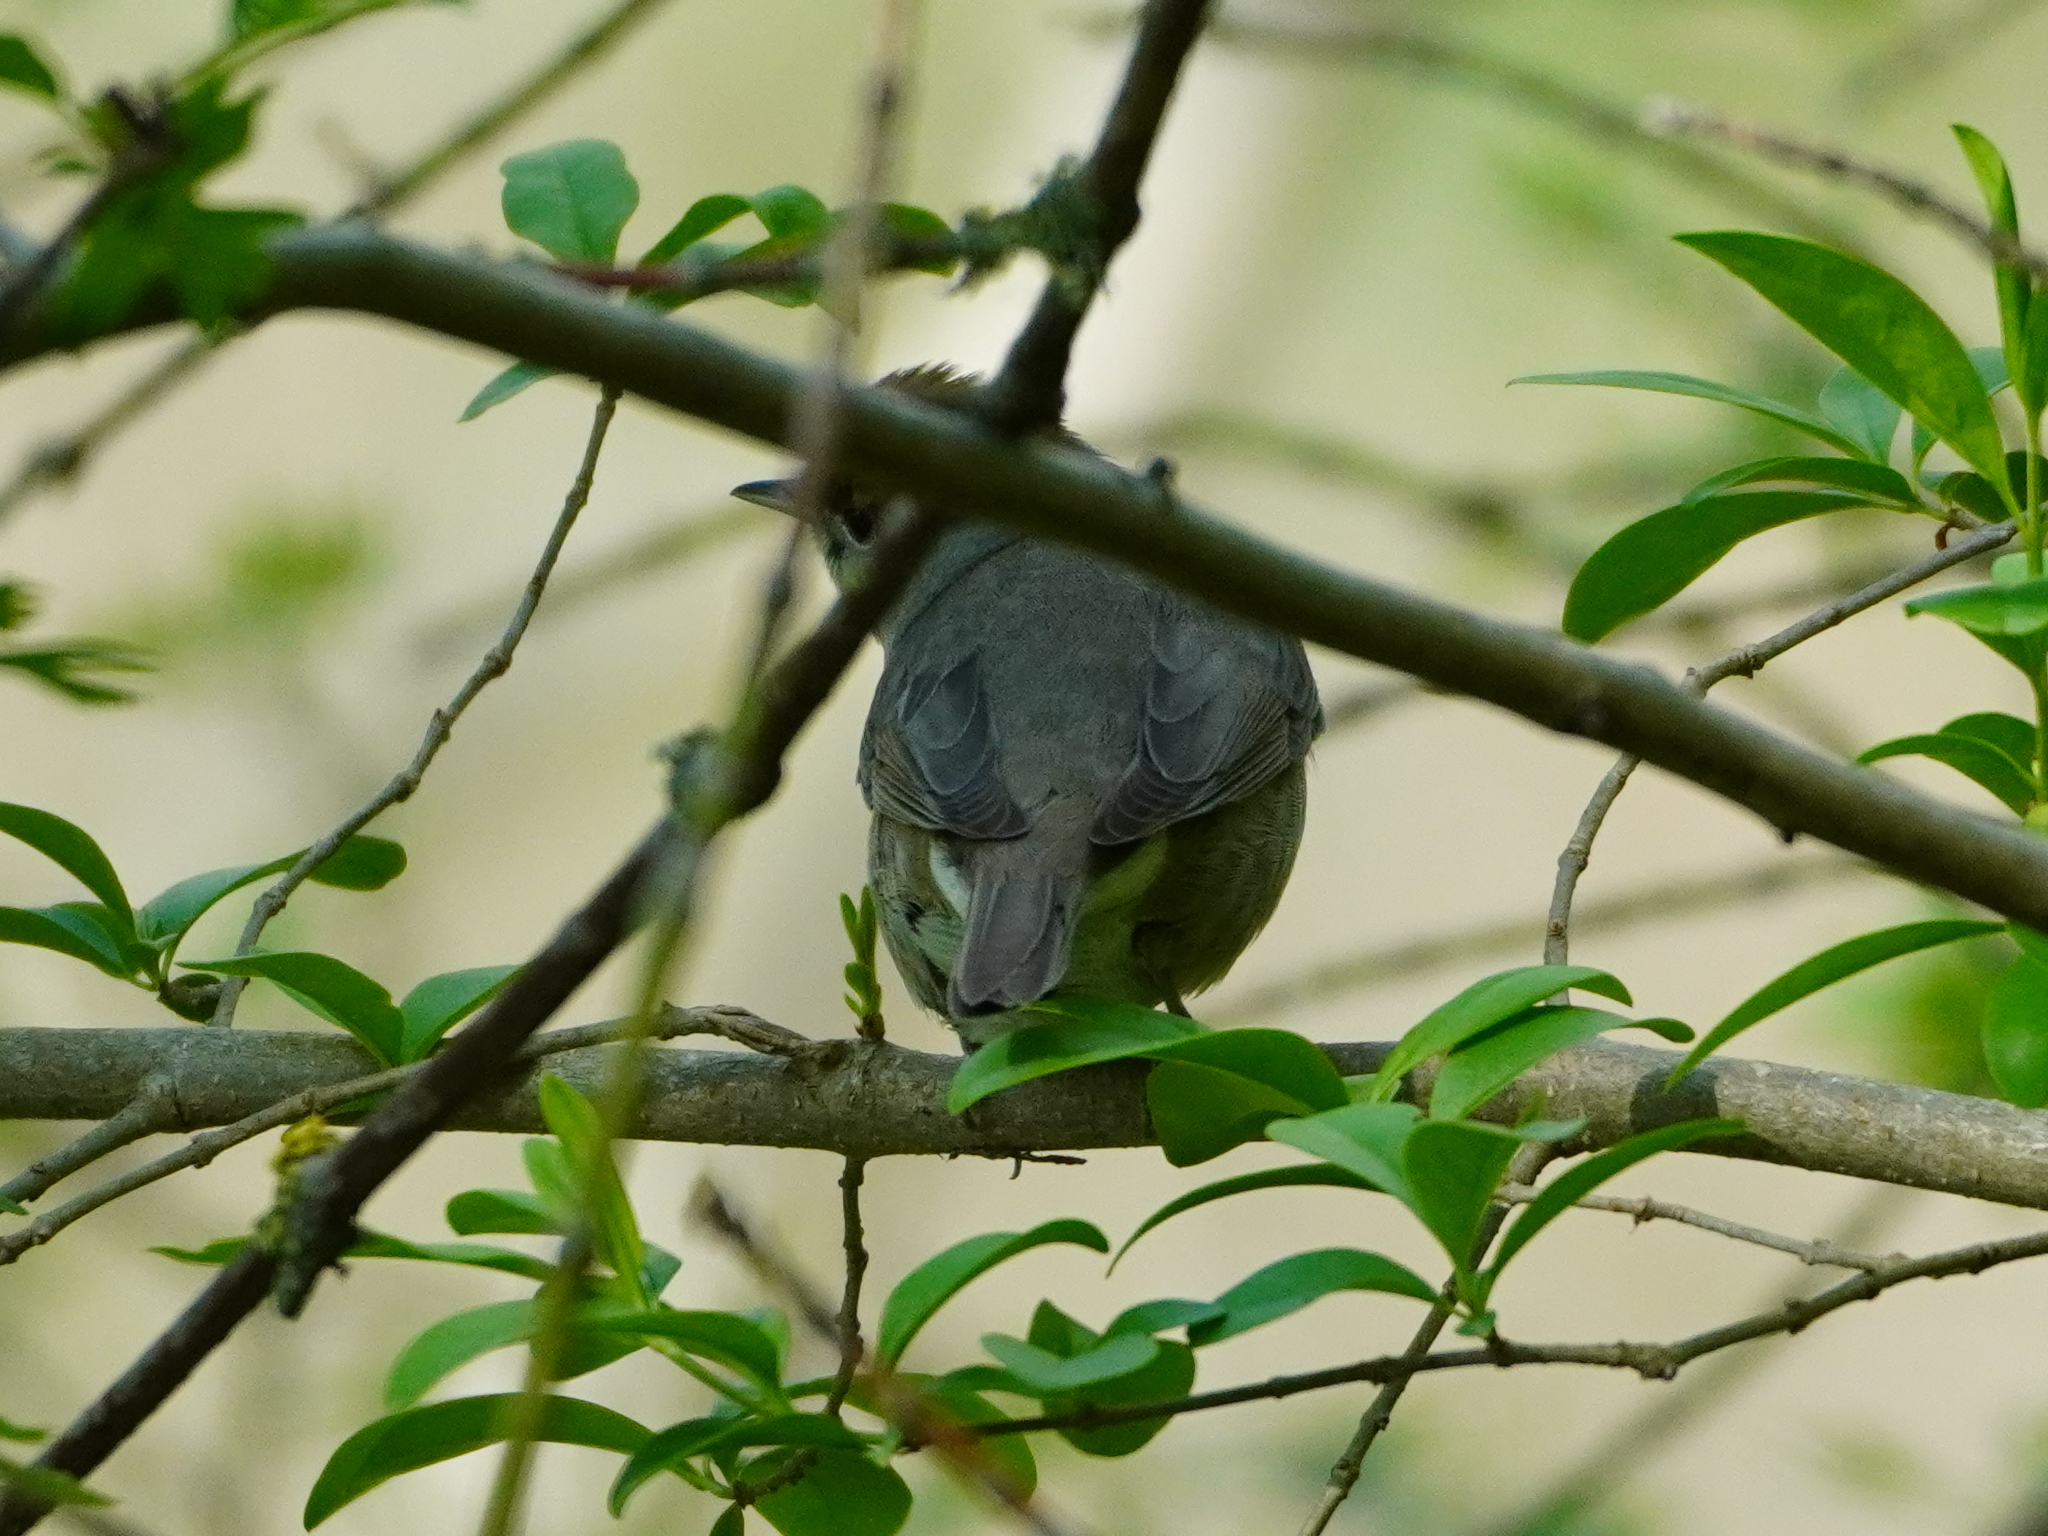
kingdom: Animalia
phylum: Chordata
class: Aves
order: Passeriformes
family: Sylviidae
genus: Sylvia
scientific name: Sylvia atricapilla
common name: Eurasian blackcap
